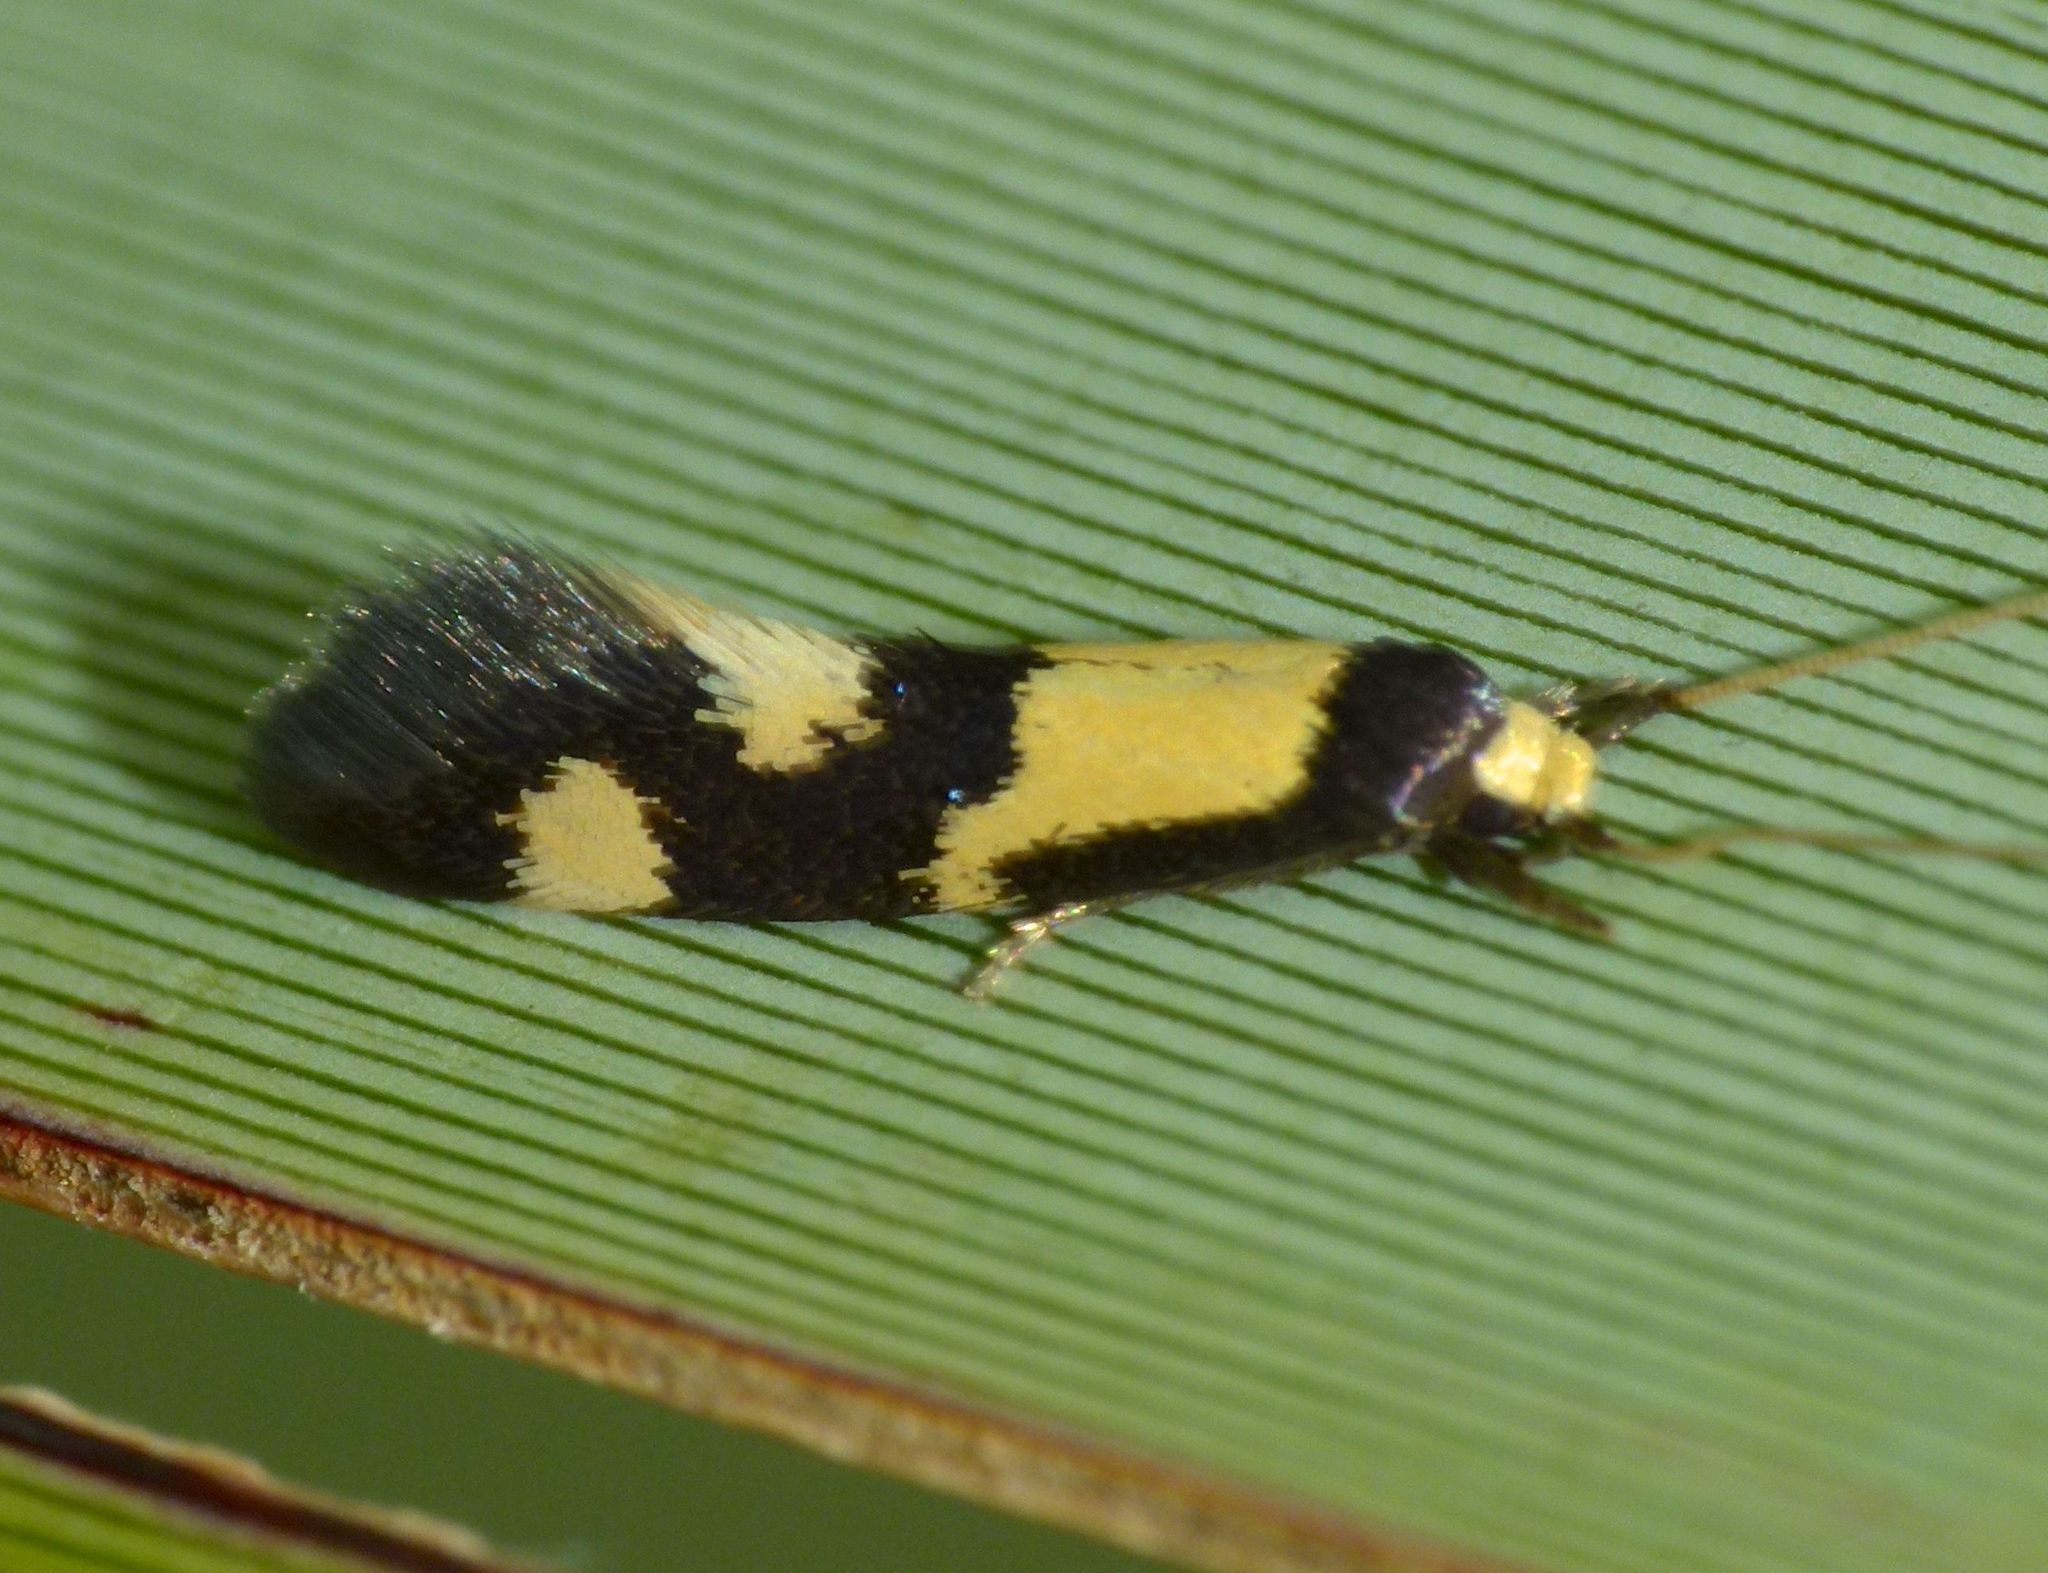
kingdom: Animalia
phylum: Arthropoda
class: Insecta
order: Lepidoptera
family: Tineidae
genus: Opogona
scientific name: Opogona comptella
